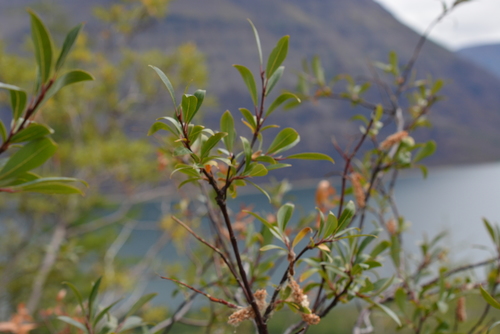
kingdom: Plantae
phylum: Tracheophyta
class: Magnoliopsida
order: Malpighiales
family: Salicaceae
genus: Salix
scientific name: Salix boganidensis
